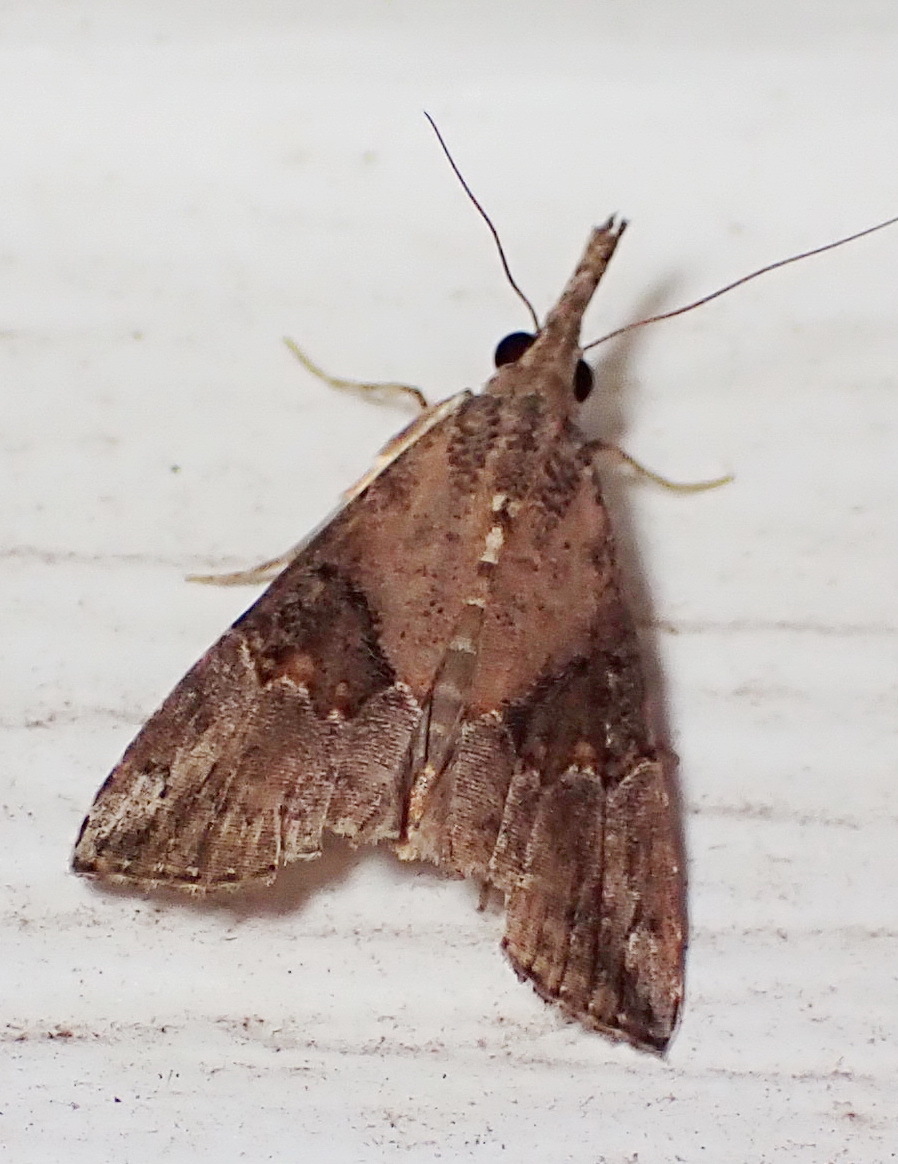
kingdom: Animalia
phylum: Arthropoda
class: Insecta
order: Lepidoptera
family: Erebidae
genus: Hypena
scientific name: Hypena minualis
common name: Sooty snout
